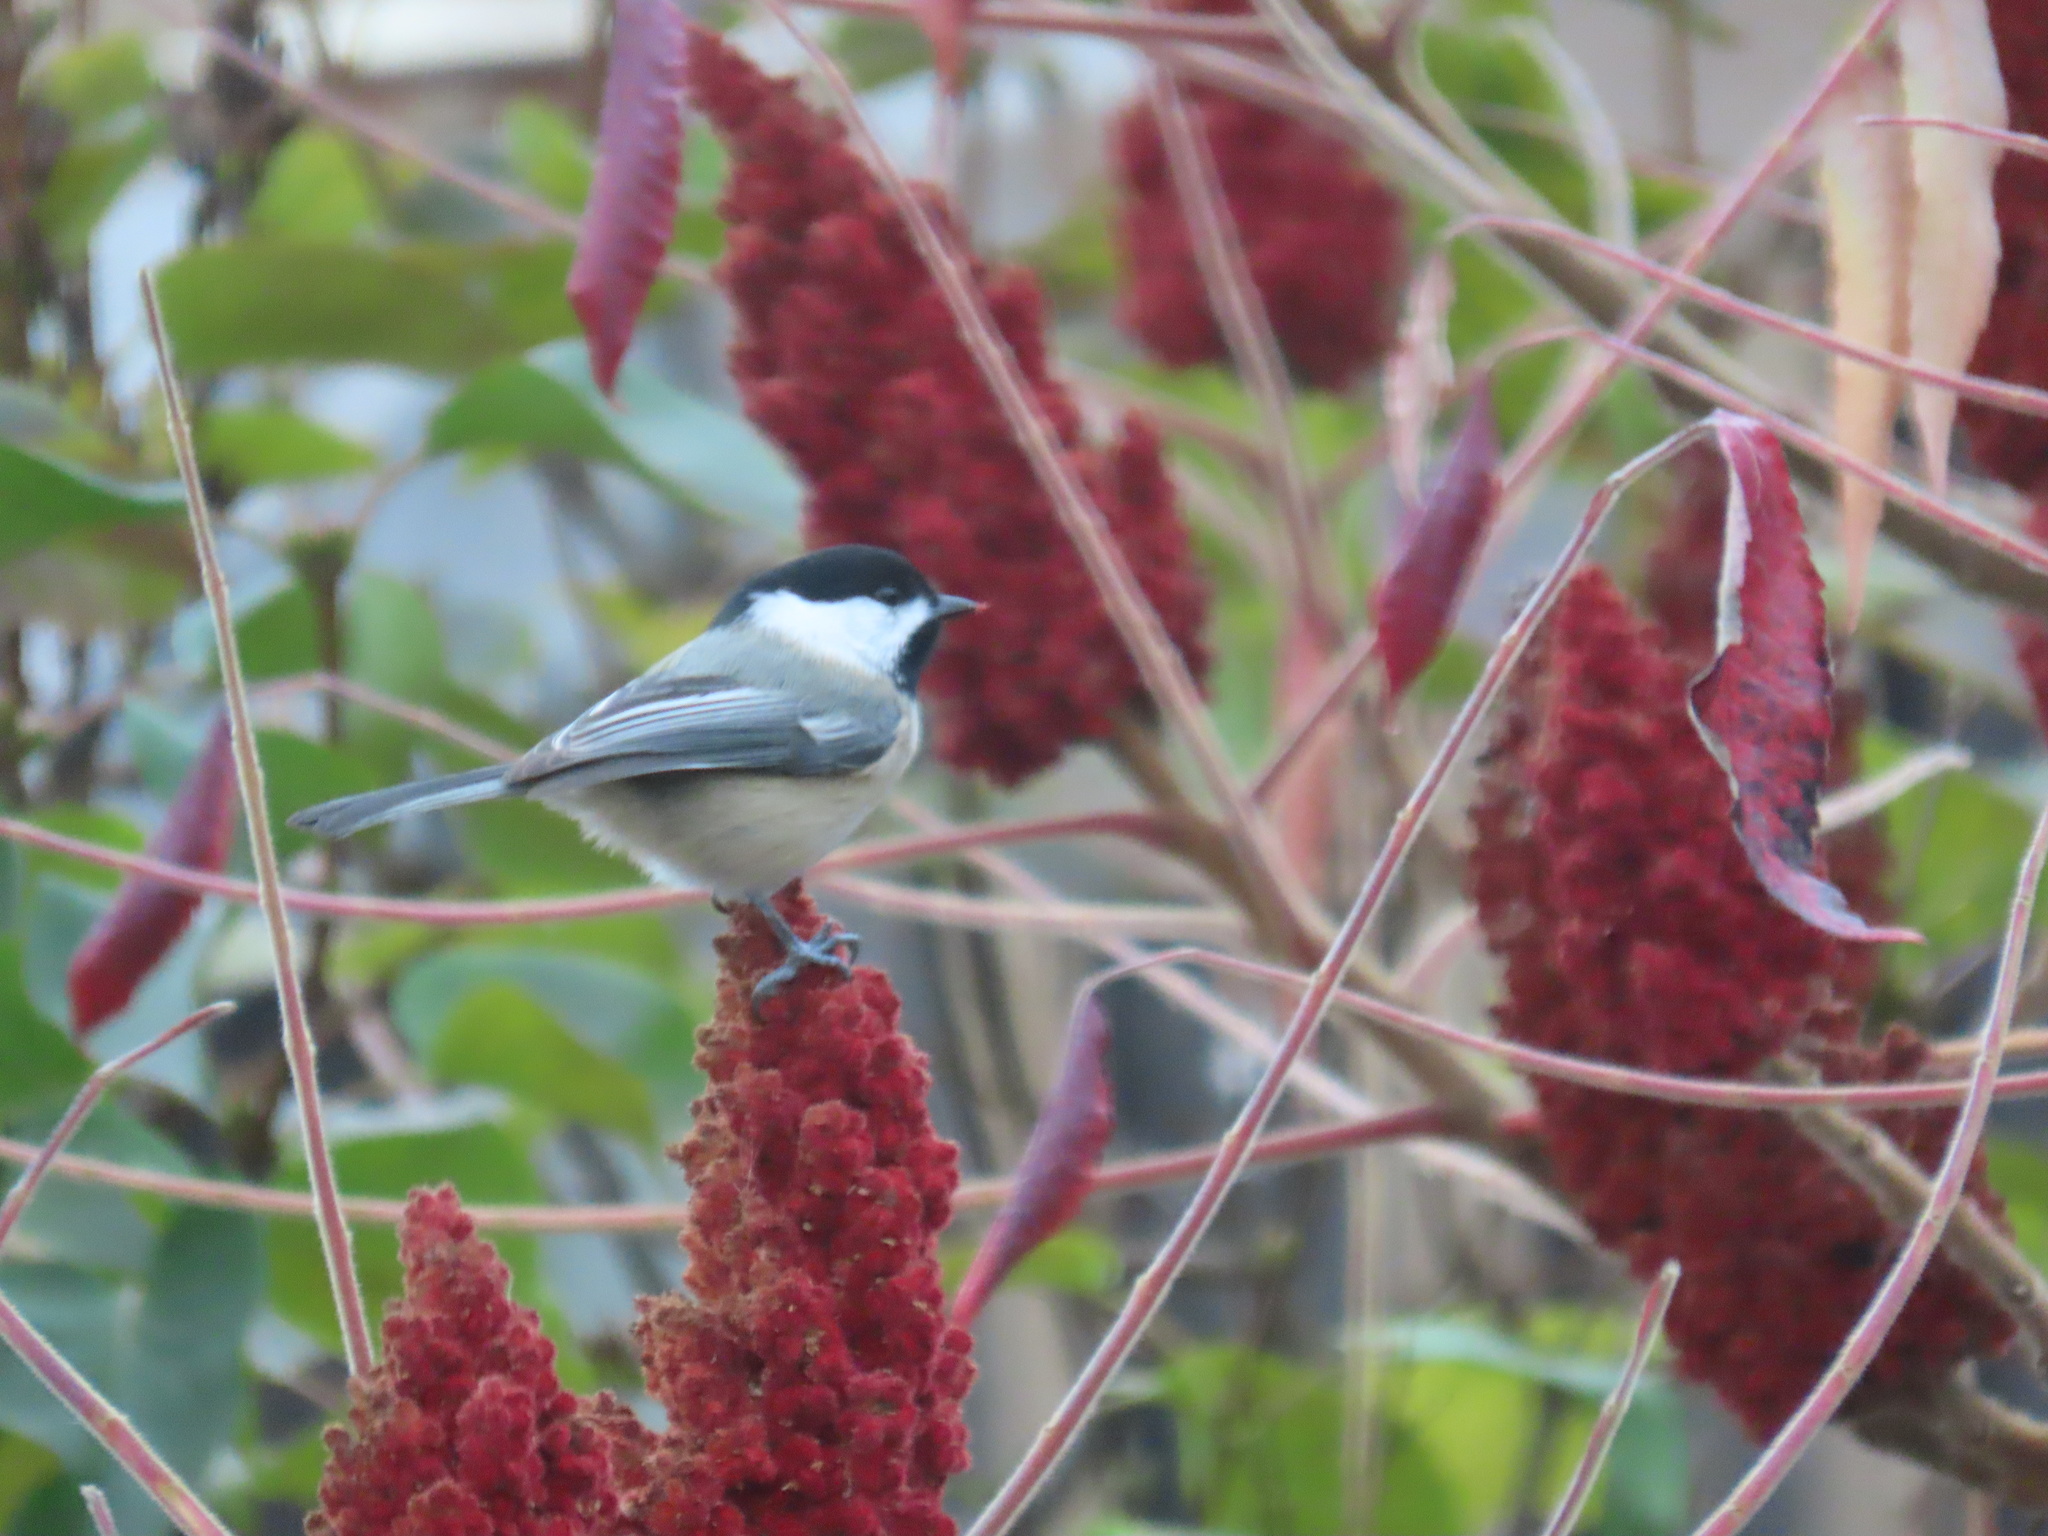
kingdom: Animalia
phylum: Chordata
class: Aves
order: Passeriformes
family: Paridae
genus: Poecile
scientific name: Poecile atricapillus
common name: Black-capped chickadee
